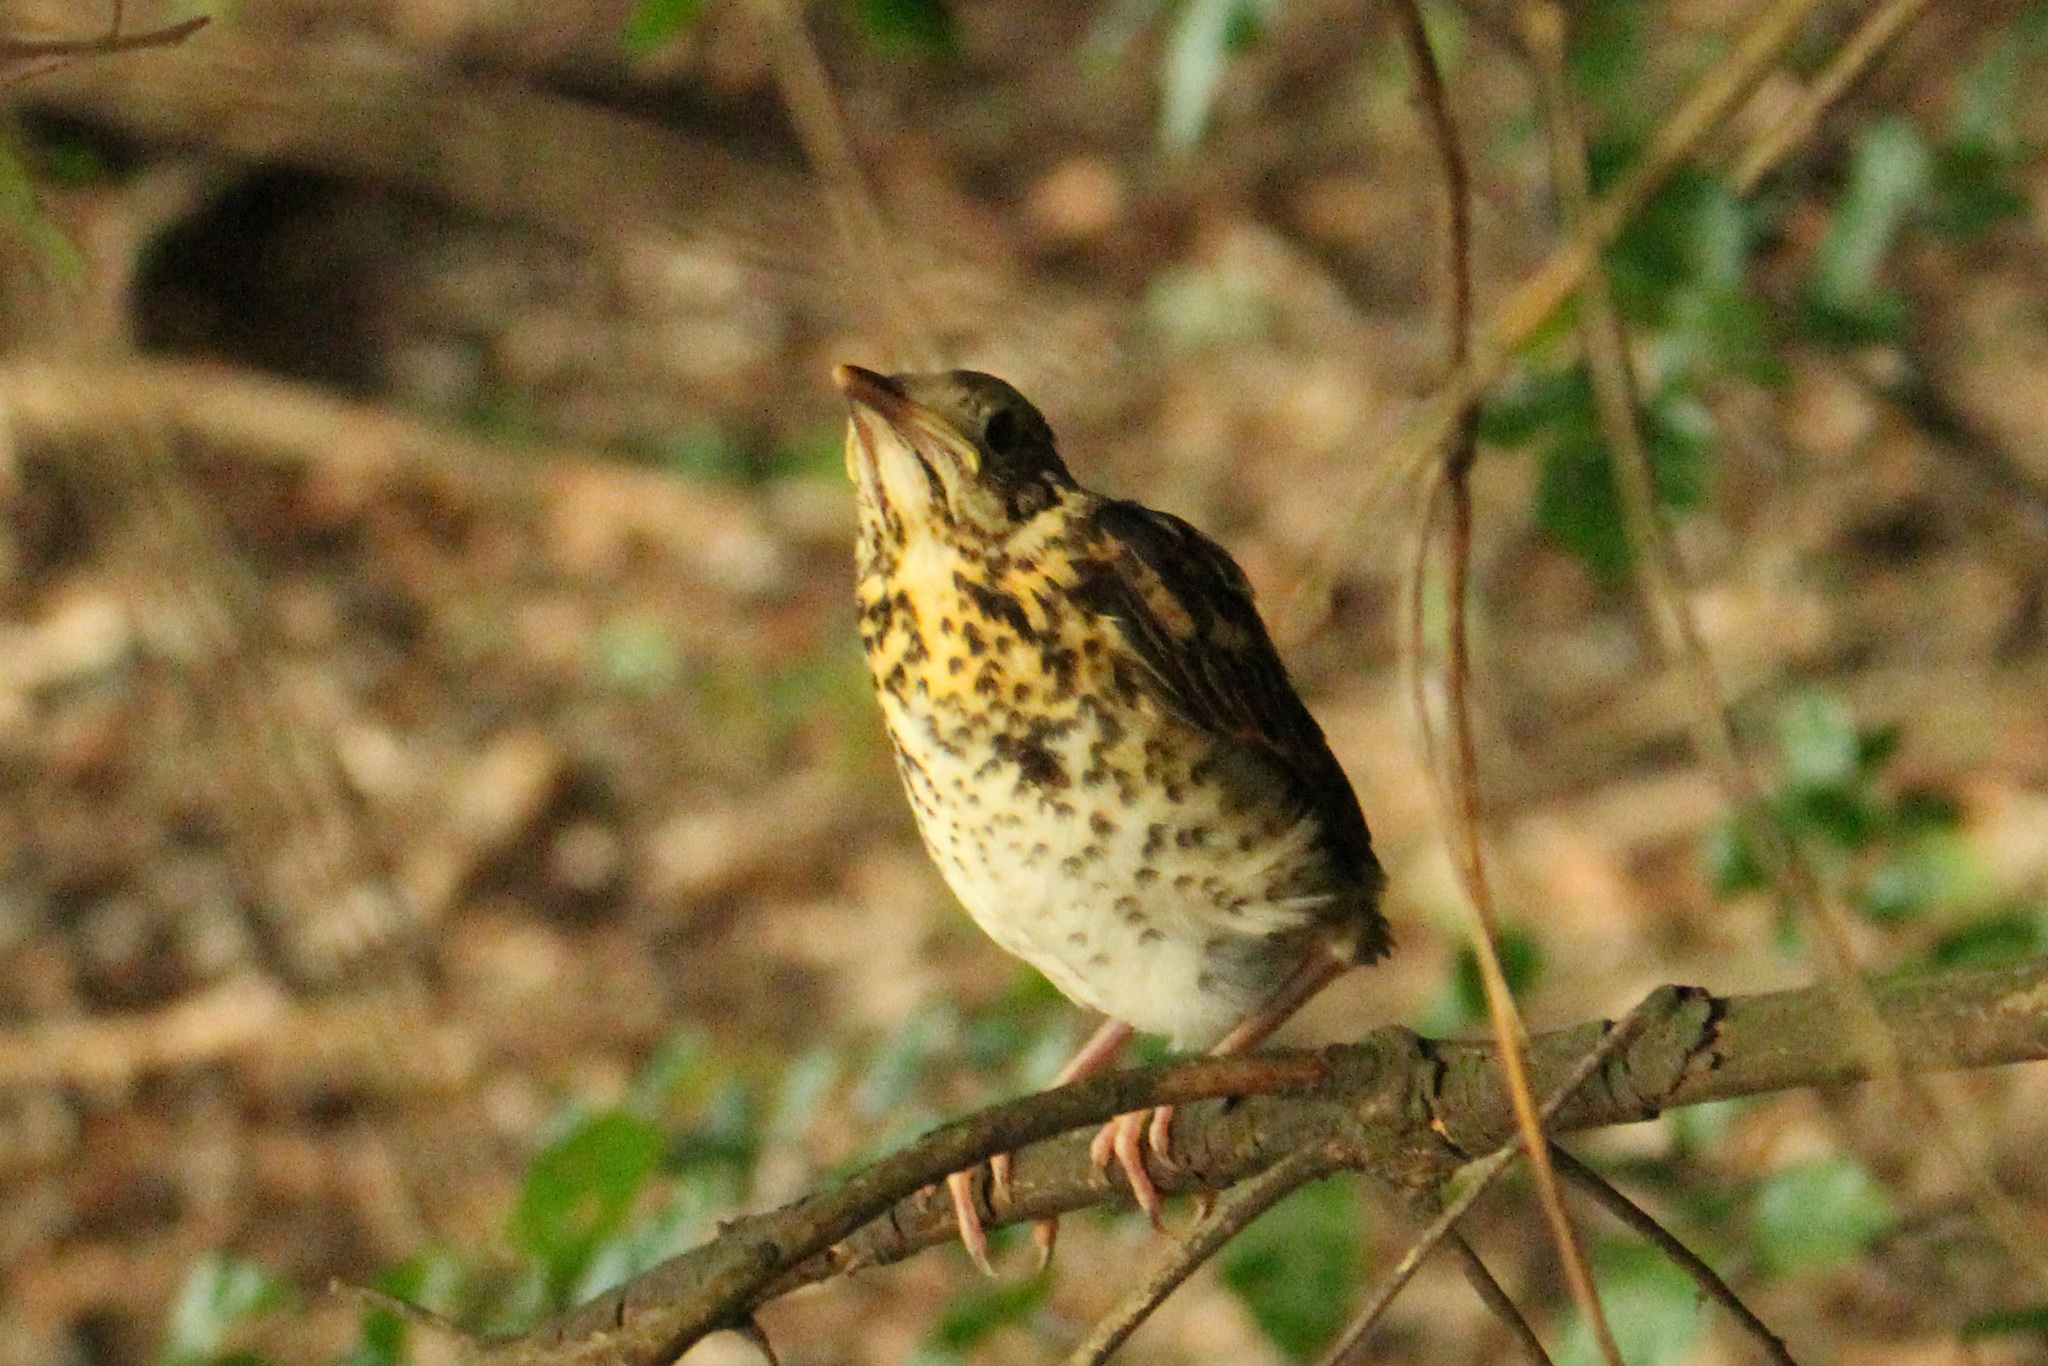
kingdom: Animalia
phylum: Chordata
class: Aves
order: Passeriformes
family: Turdidae
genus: Turdus
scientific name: Turdus philomelos
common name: Song thrush
